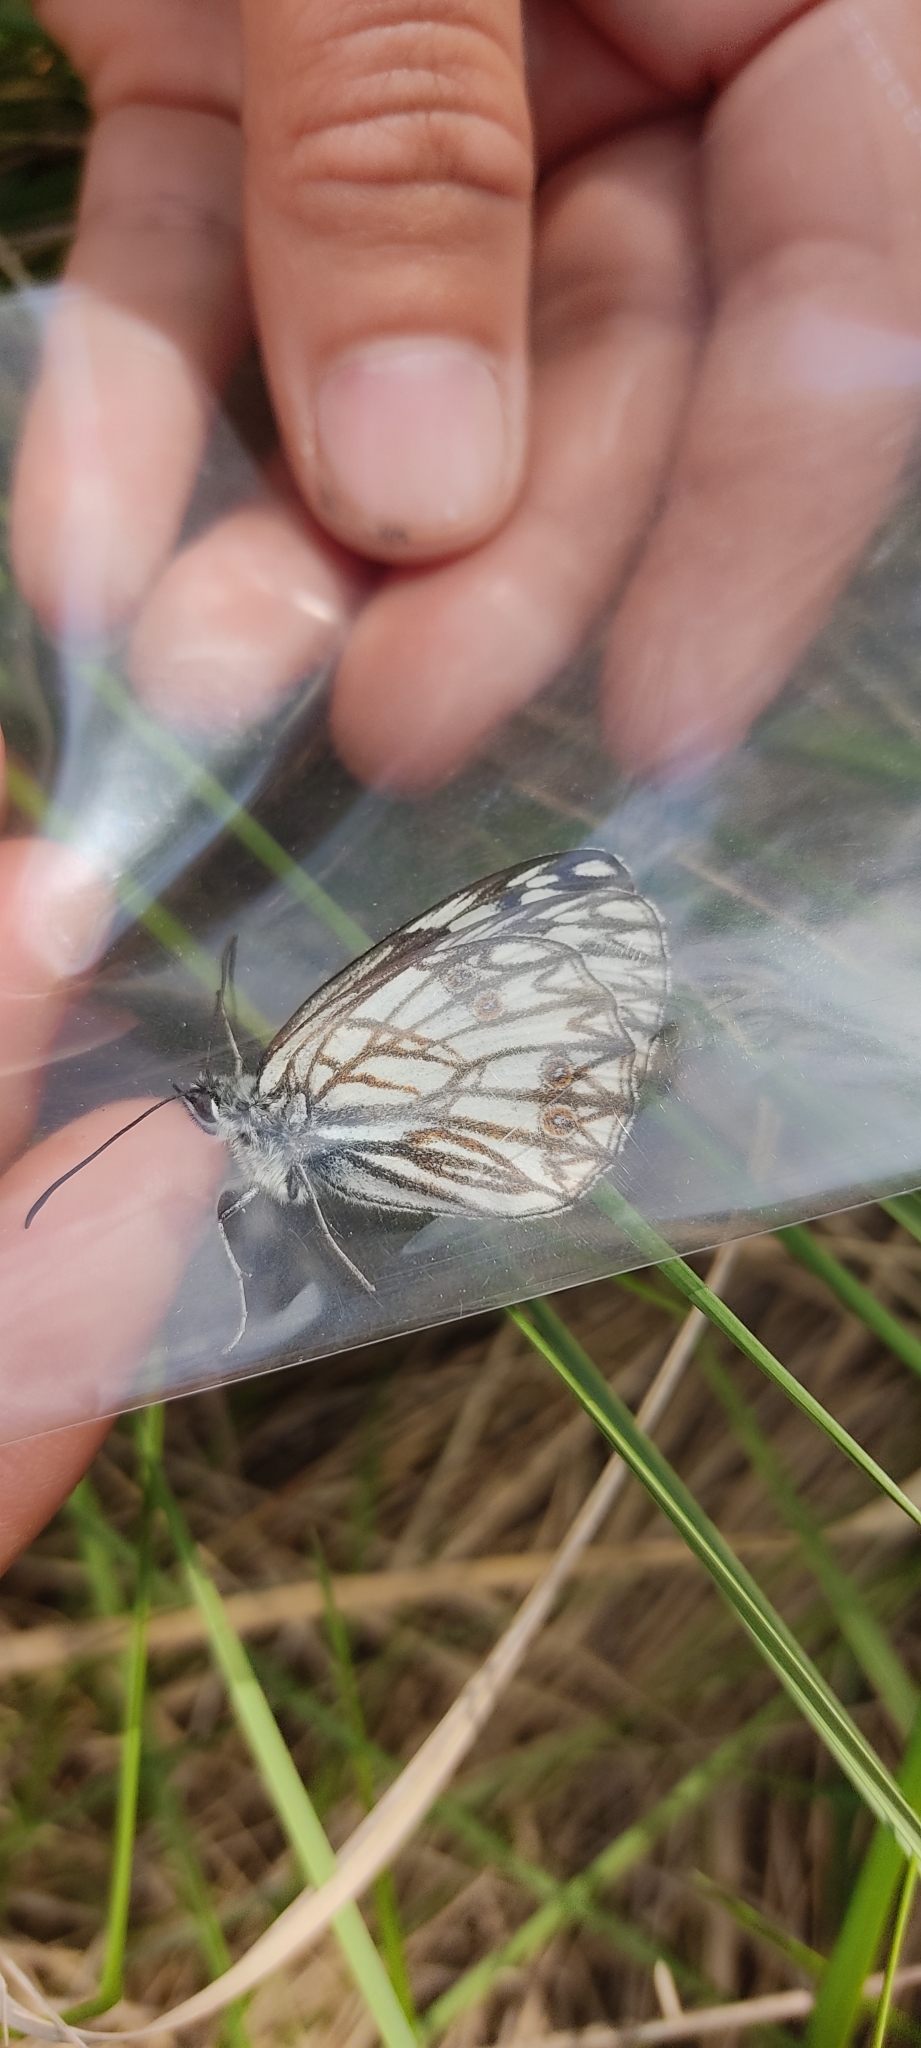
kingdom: Animalia
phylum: Arthropoda
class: Insecta
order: Lepidoptera
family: Nymphalidae
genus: Melanargia
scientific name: Melanargia occitanica
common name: Western marbled white
